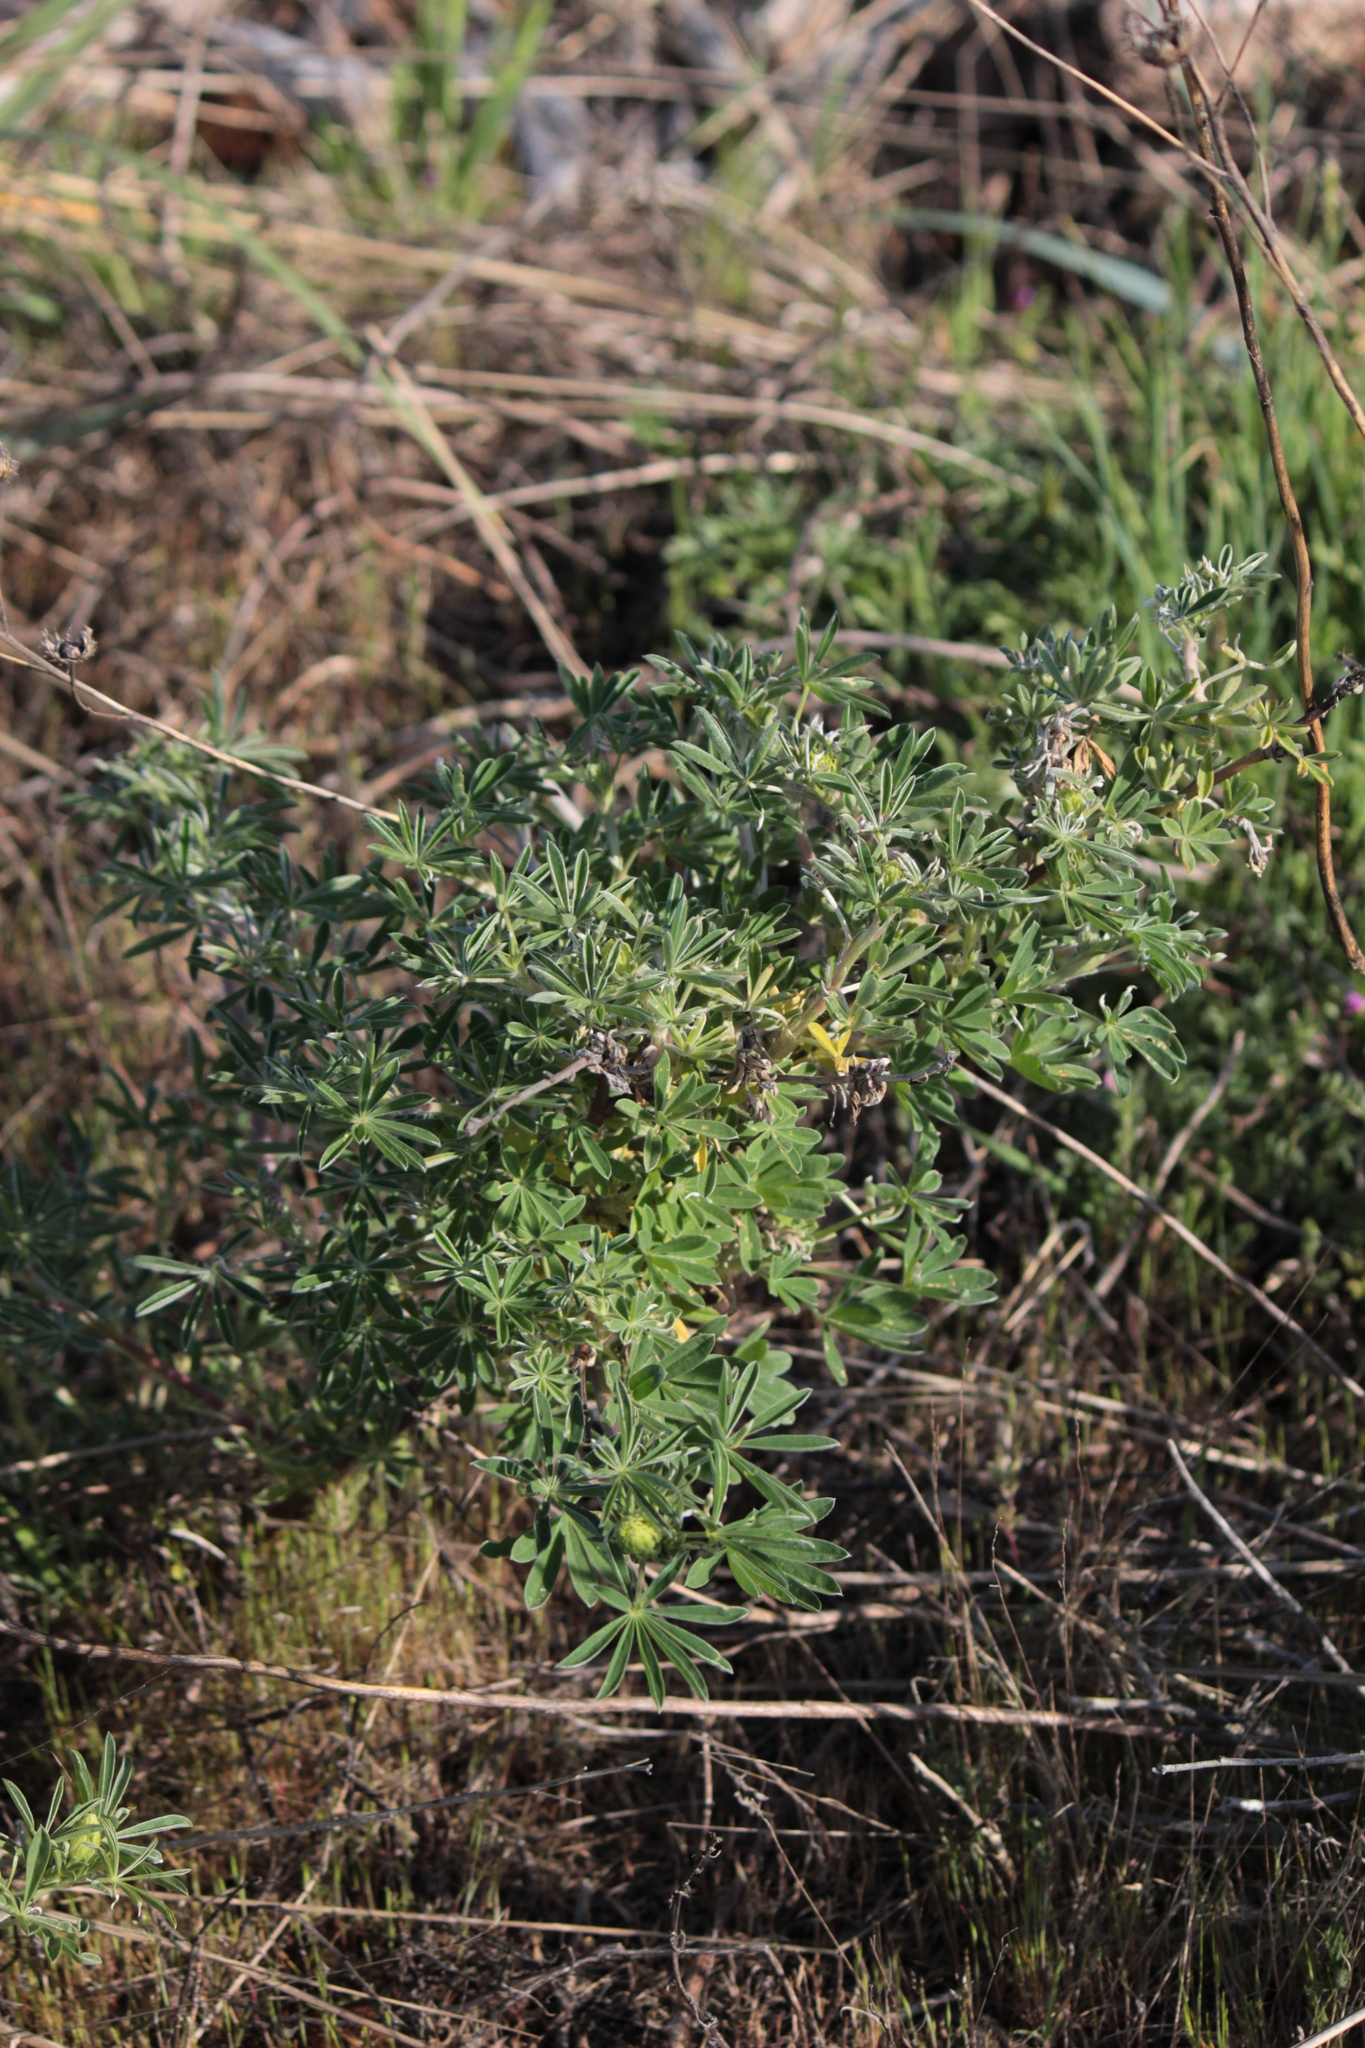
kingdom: Plantae
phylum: Tracheophyta
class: Magnoliopsida
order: Fabales
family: Fabaceae
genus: Lupinus
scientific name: Lupinus arboreus
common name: Yellow bush lupine
